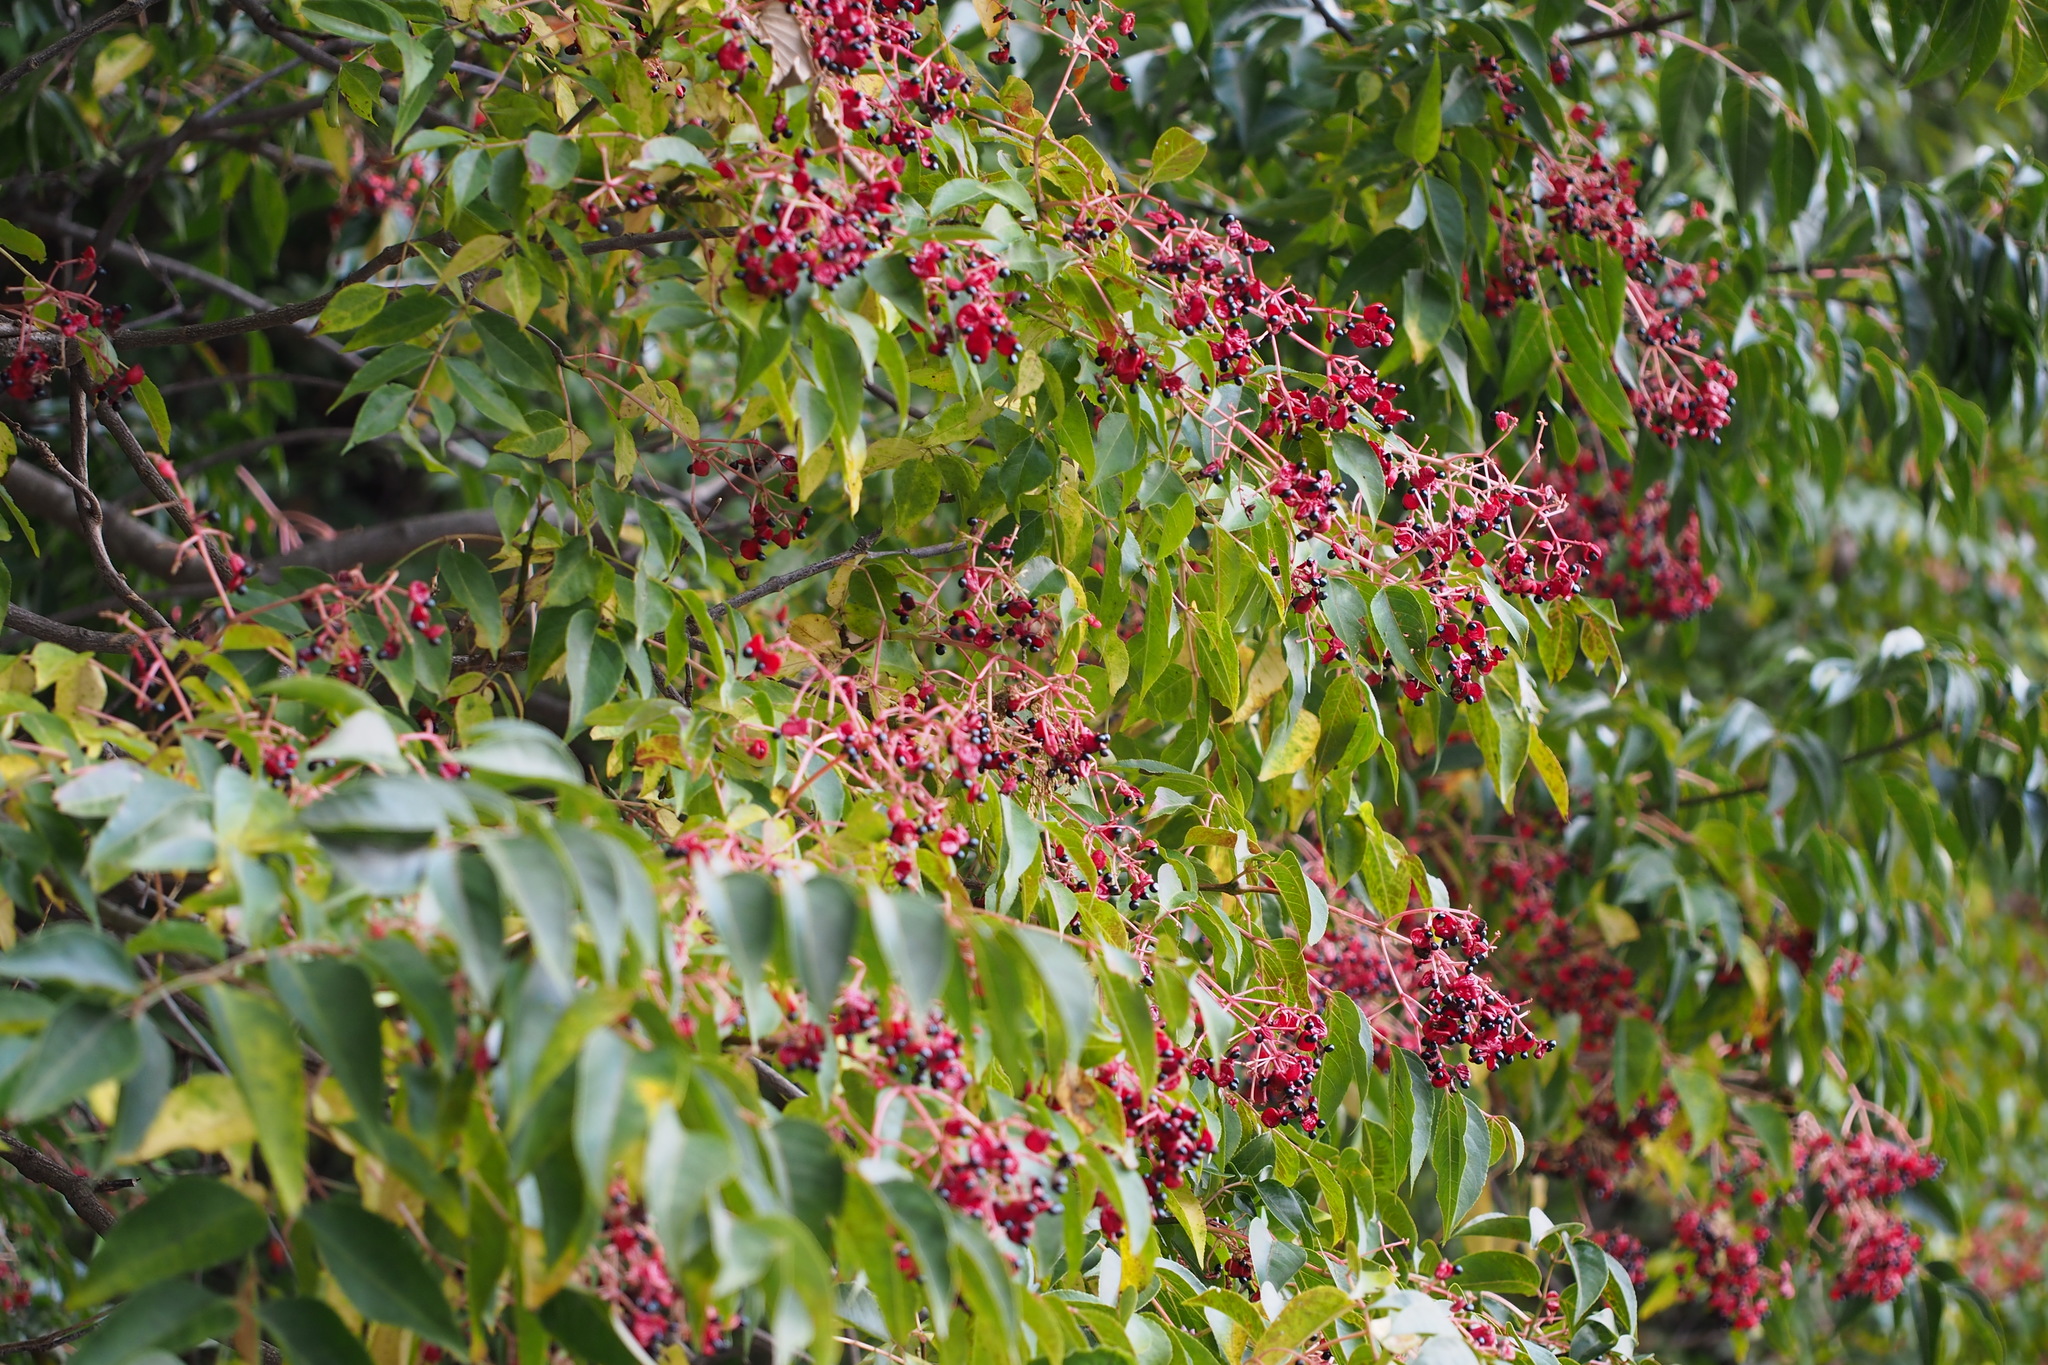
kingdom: Plantae
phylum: Tracheophyta
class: Magnoliopsida
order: Crossosomatales
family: Staphyleaceae
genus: Staphylea
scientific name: Staphylea japonica
